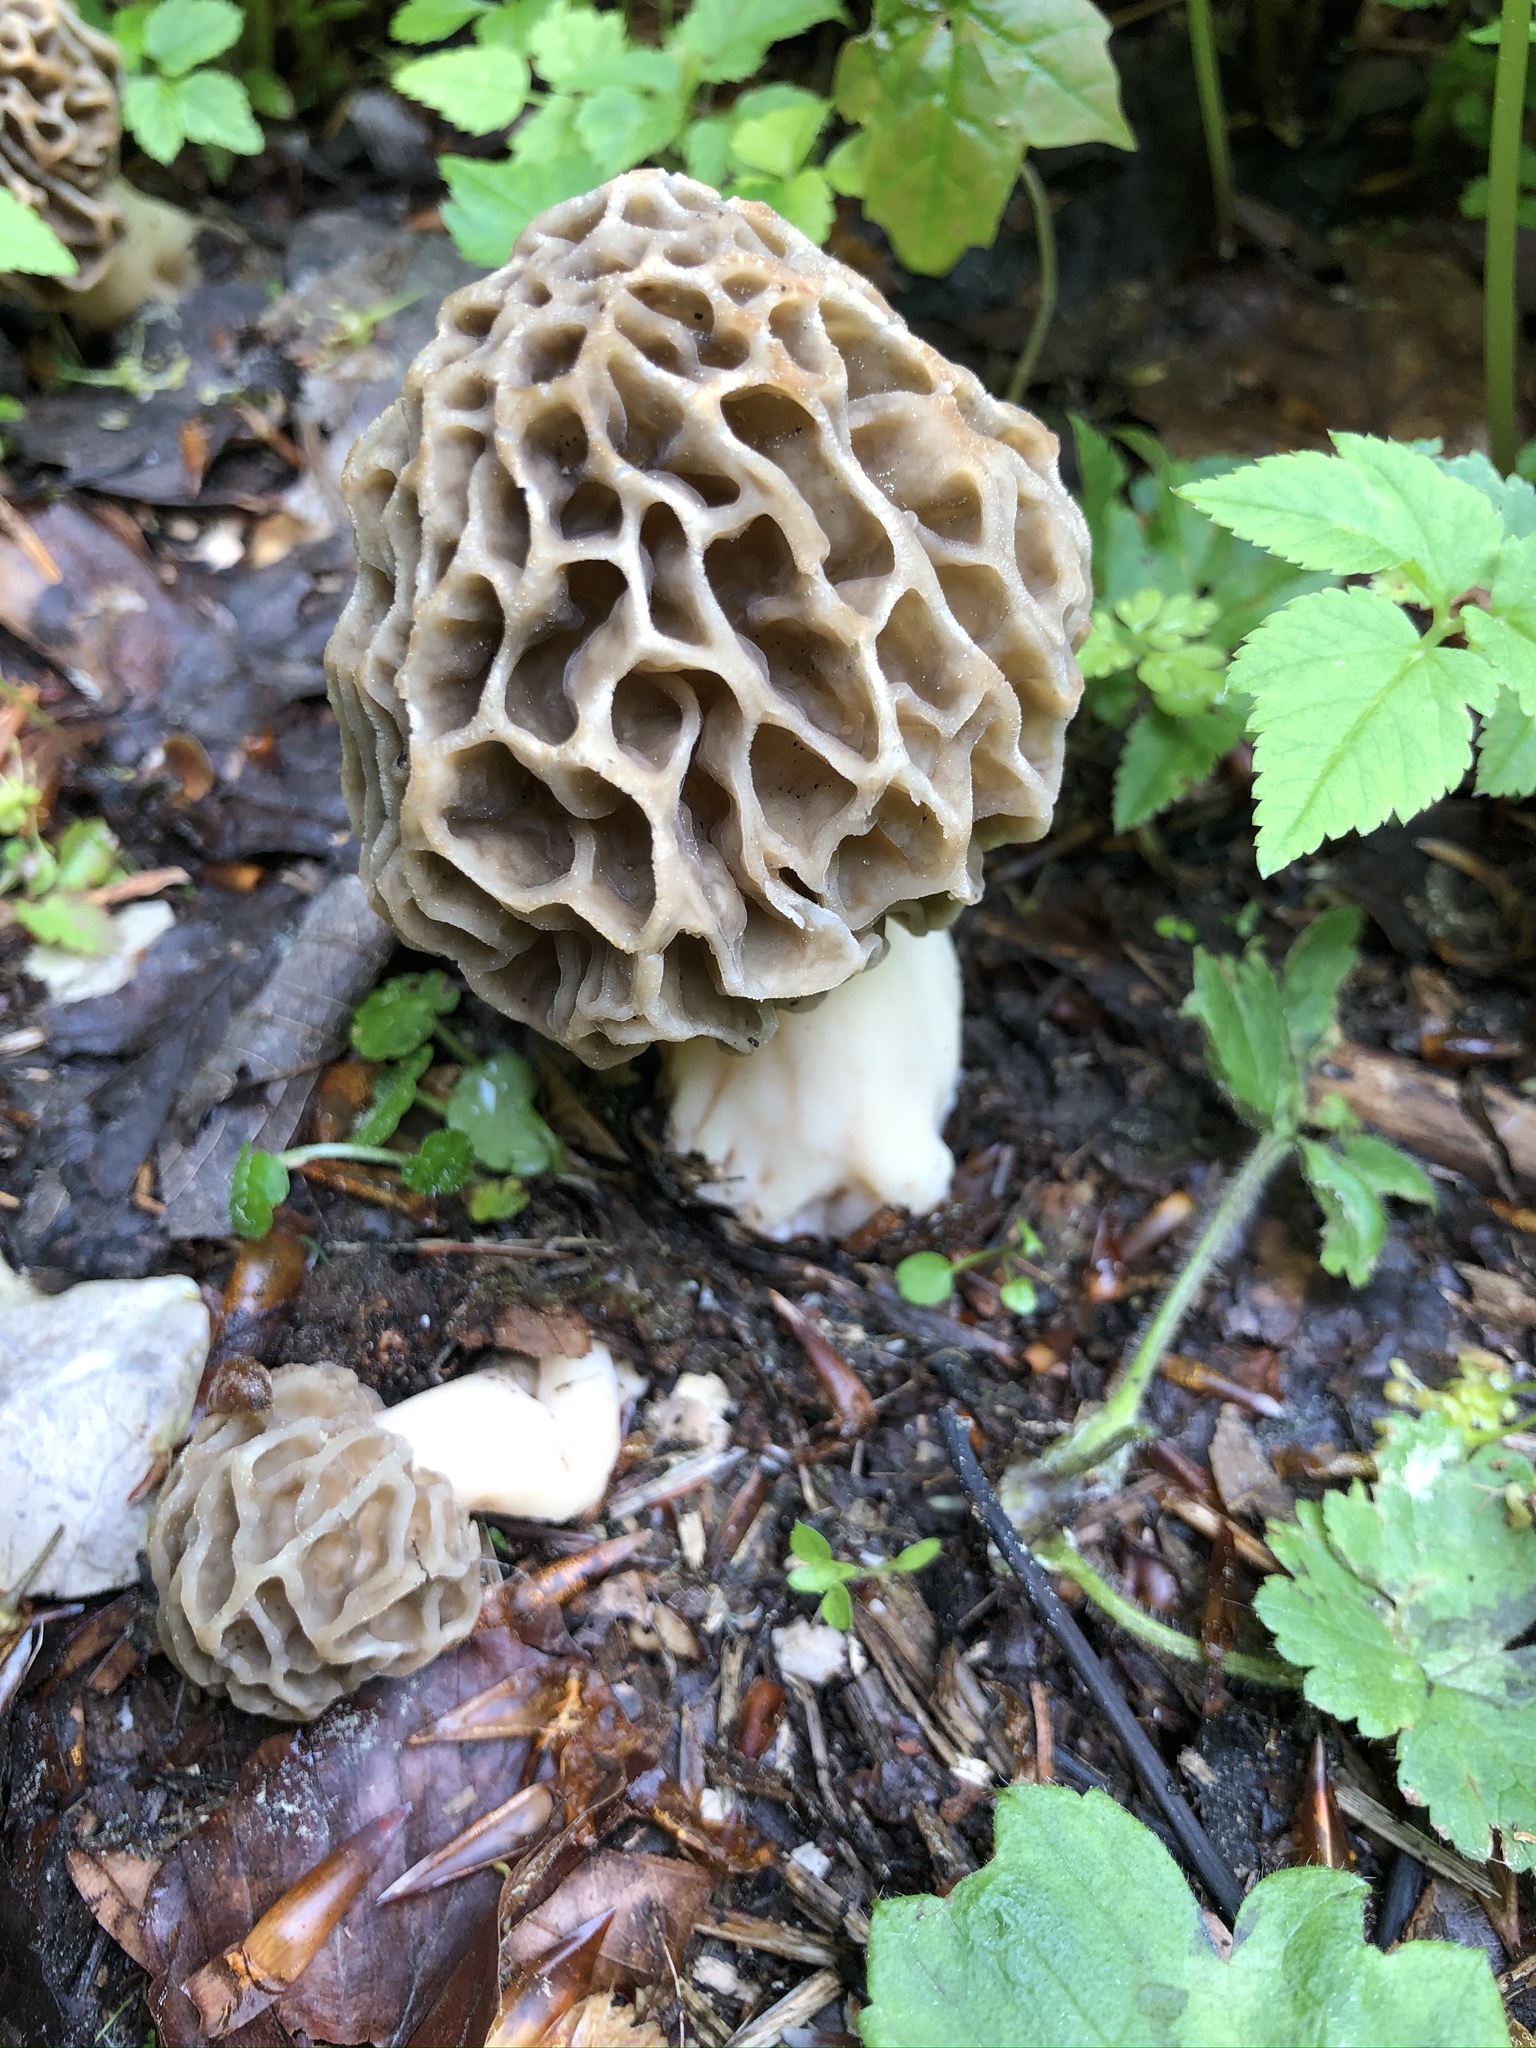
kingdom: Fungi
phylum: Ascomycota
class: Pezizomycetes
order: Pezizales
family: Morchellaceae
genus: Morchella
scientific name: Morchella esculenta
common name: Morel
